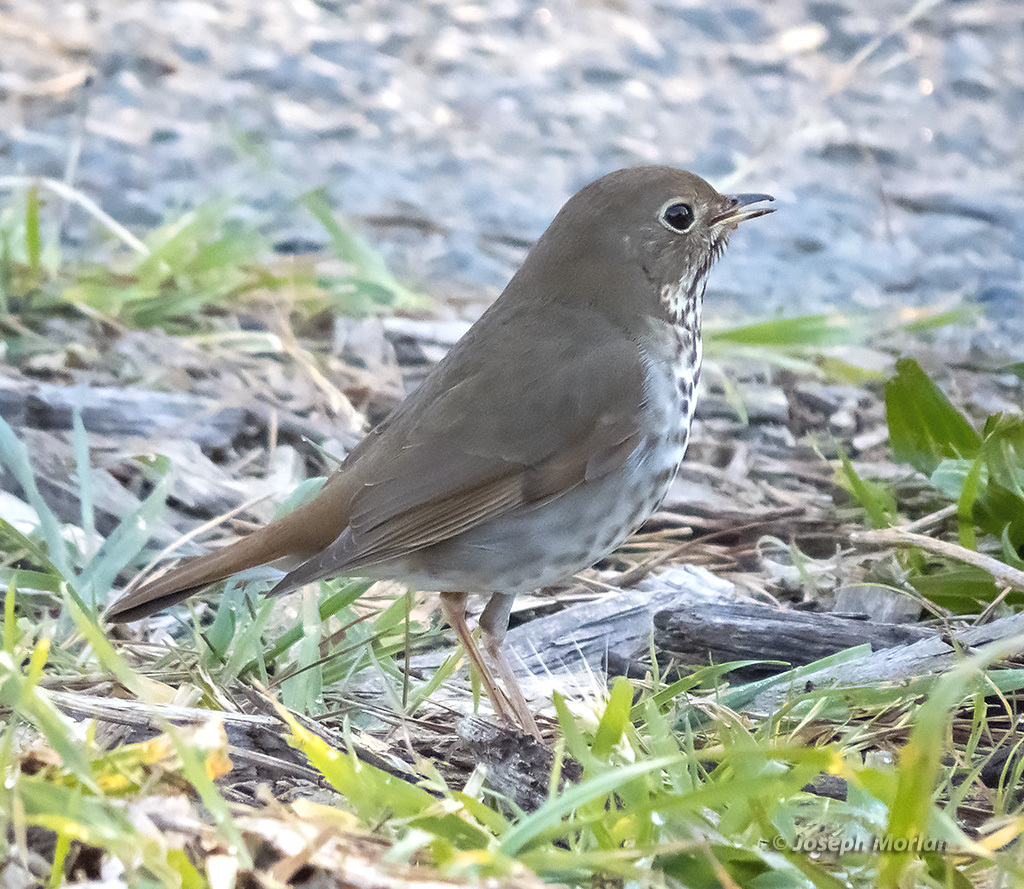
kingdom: Animalia
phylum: Chordata
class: Aves
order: Passeriformes
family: Turdidae
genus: Catharus
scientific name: Catharus guttatus
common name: Hermit thrush
